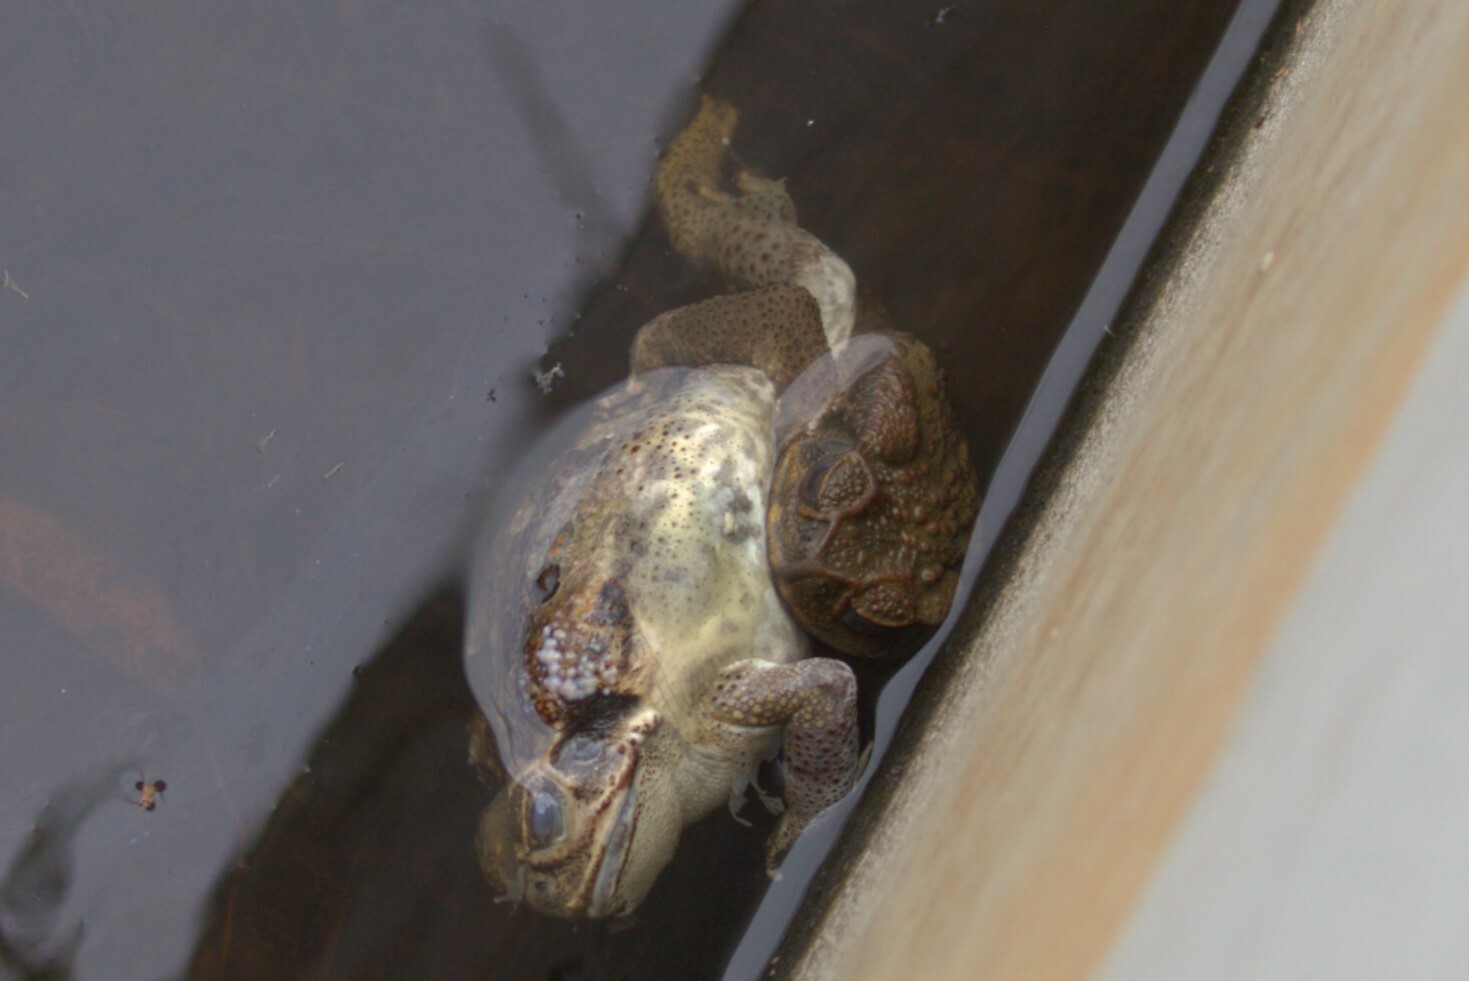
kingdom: Animalia
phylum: Chordata
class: Amphibia
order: Anura
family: Bufonidae
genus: Rhinella
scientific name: Rhinella marina
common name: Cane toad
